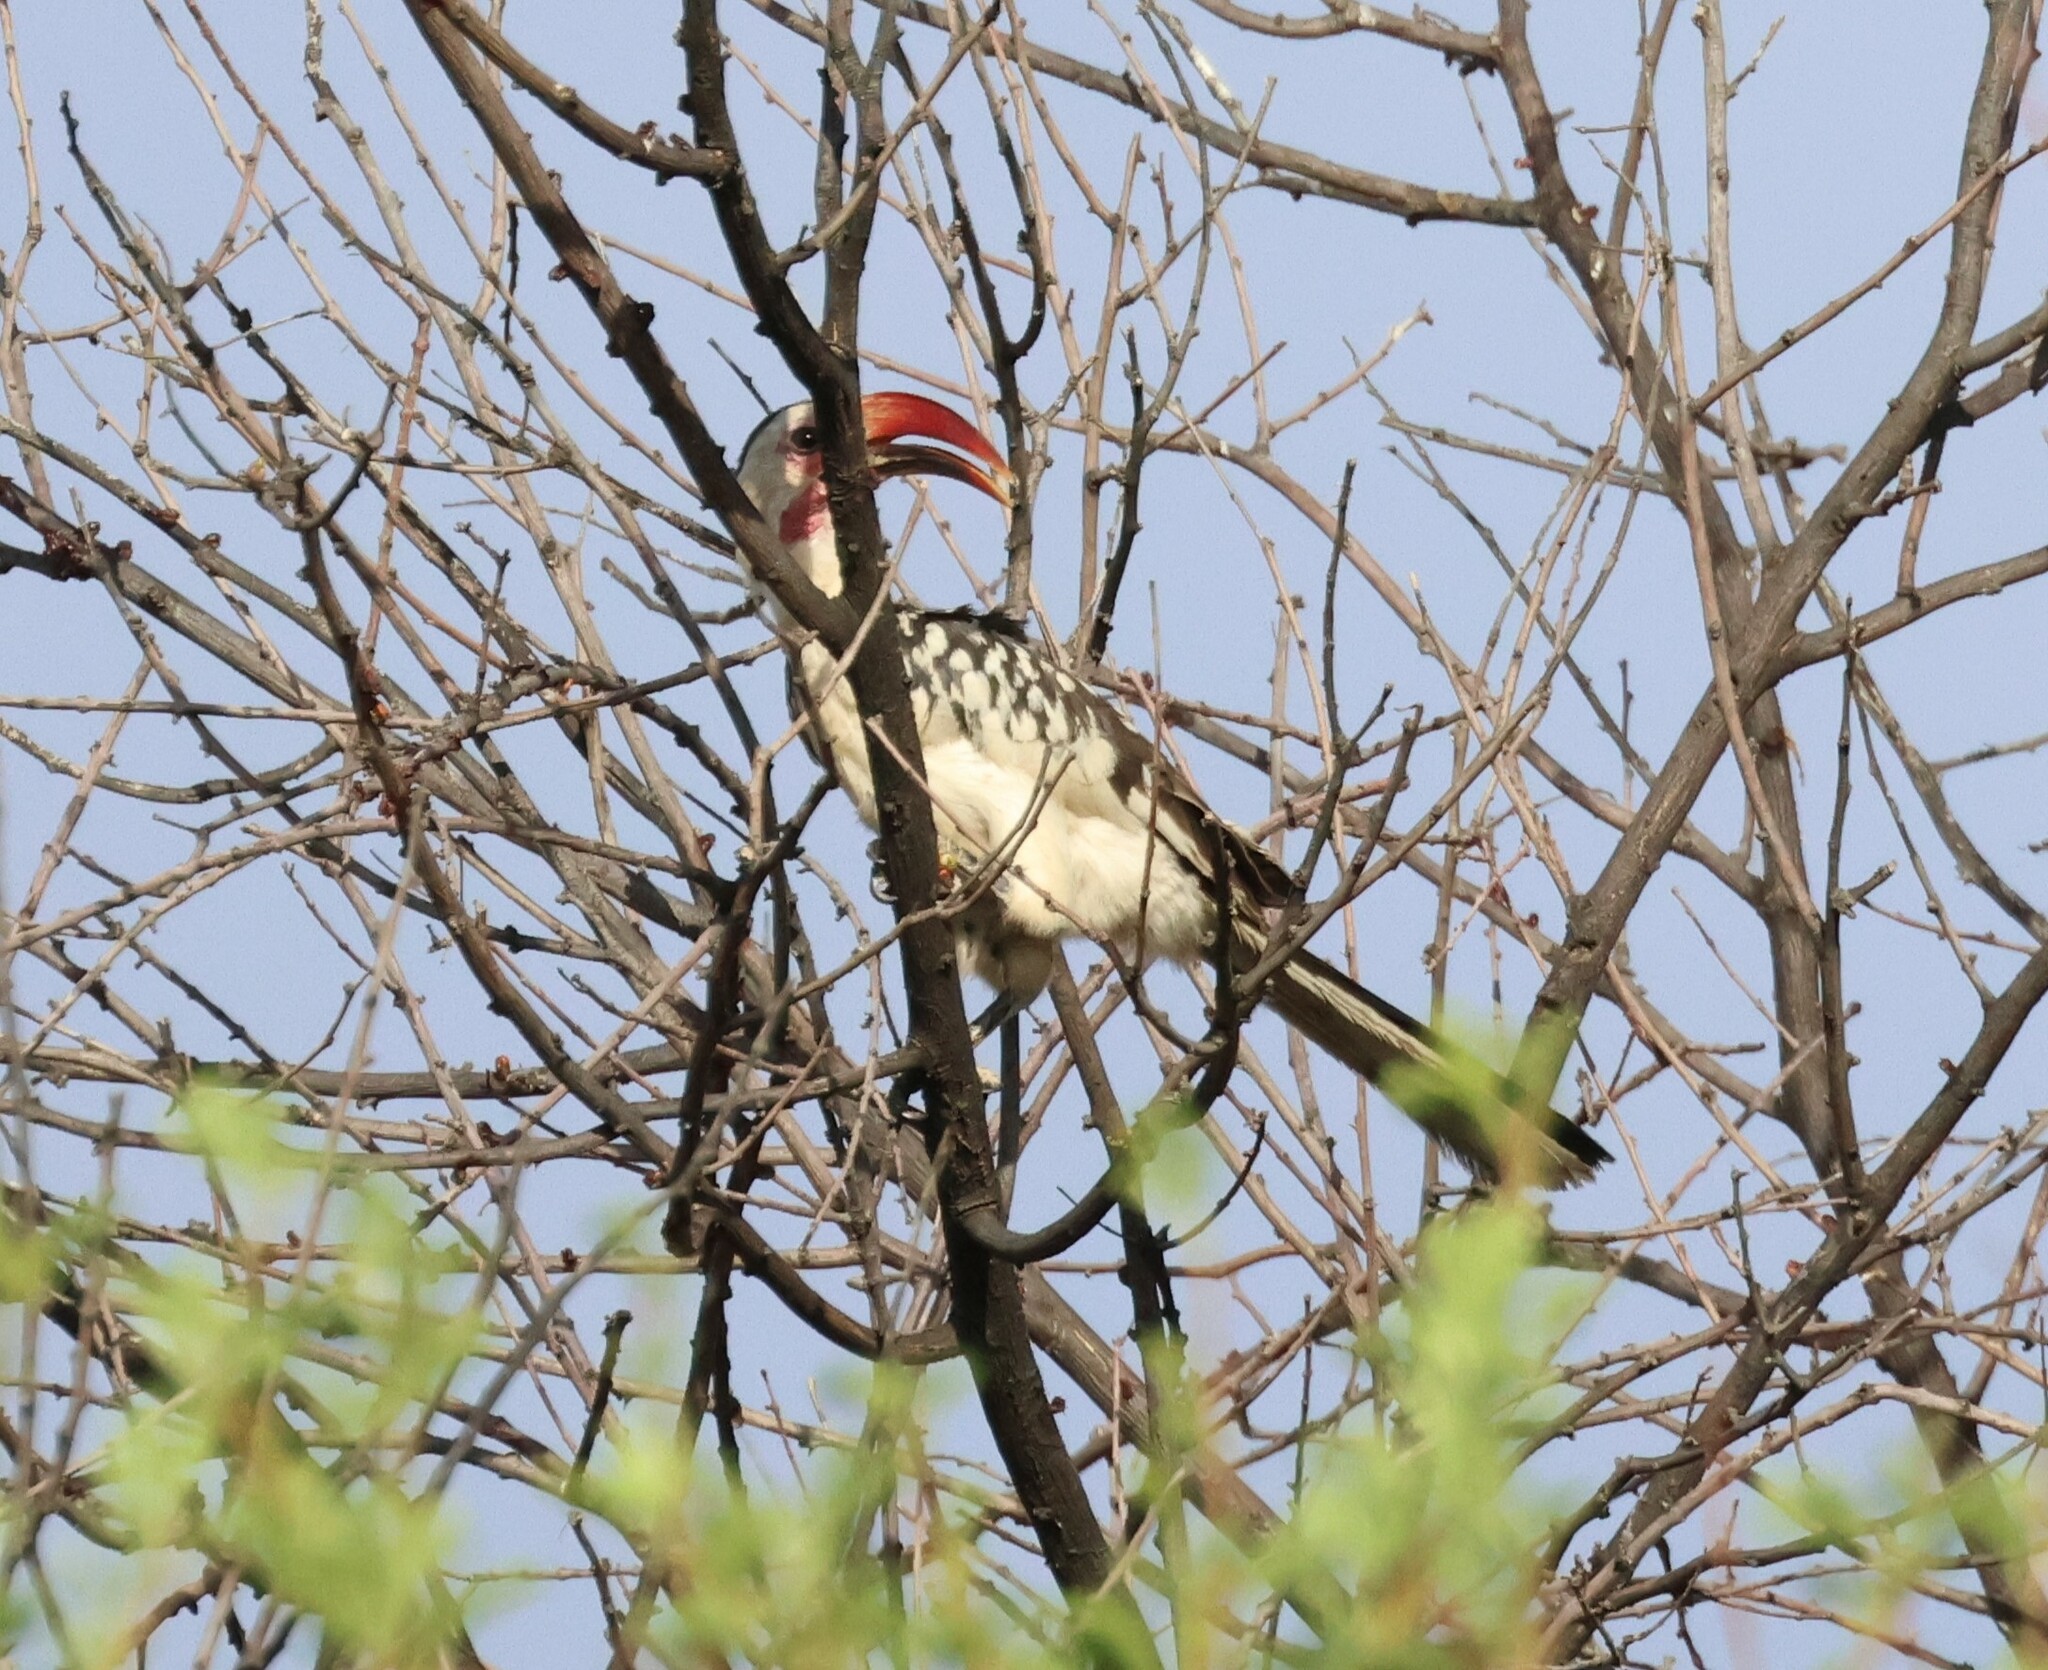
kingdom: Animalia
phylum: Chordata
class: Aves
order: Bucerotiformes
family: Bucerotidae
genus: Tockus
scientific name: Tockus damarensis
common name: Damara red-billed hornbill
